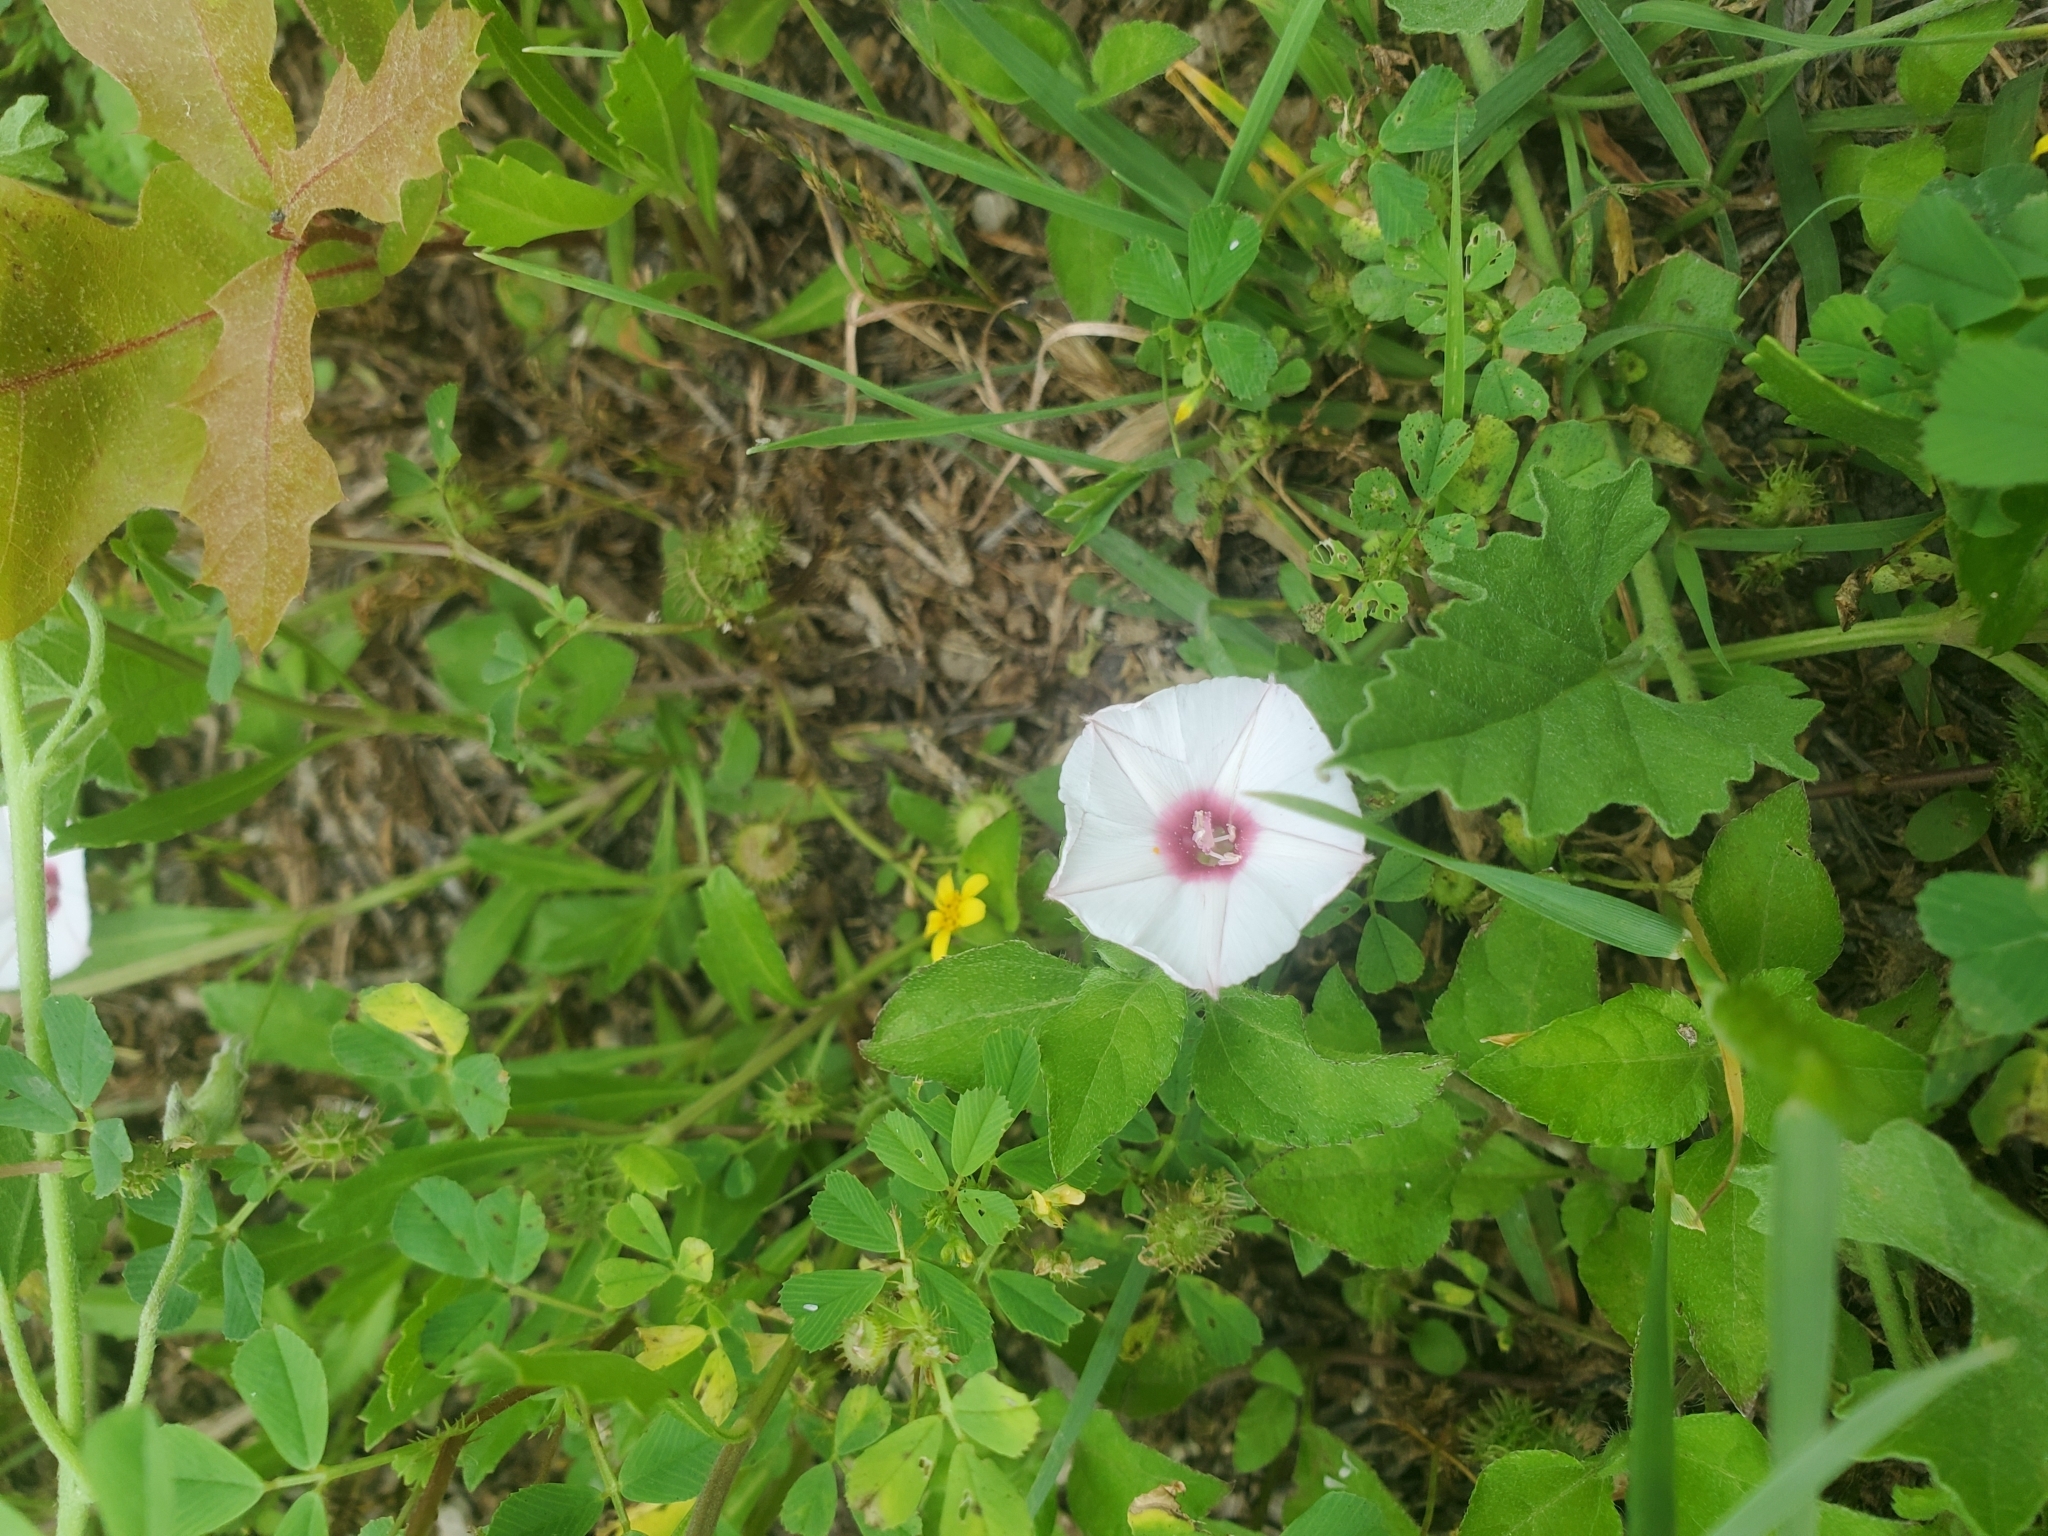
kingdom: Plantae
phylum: Tracheophyta
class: Magnoliopsida
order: Solanales
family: Convolvulaceae
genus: Convolvulus
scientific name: Convolvulus equitans
